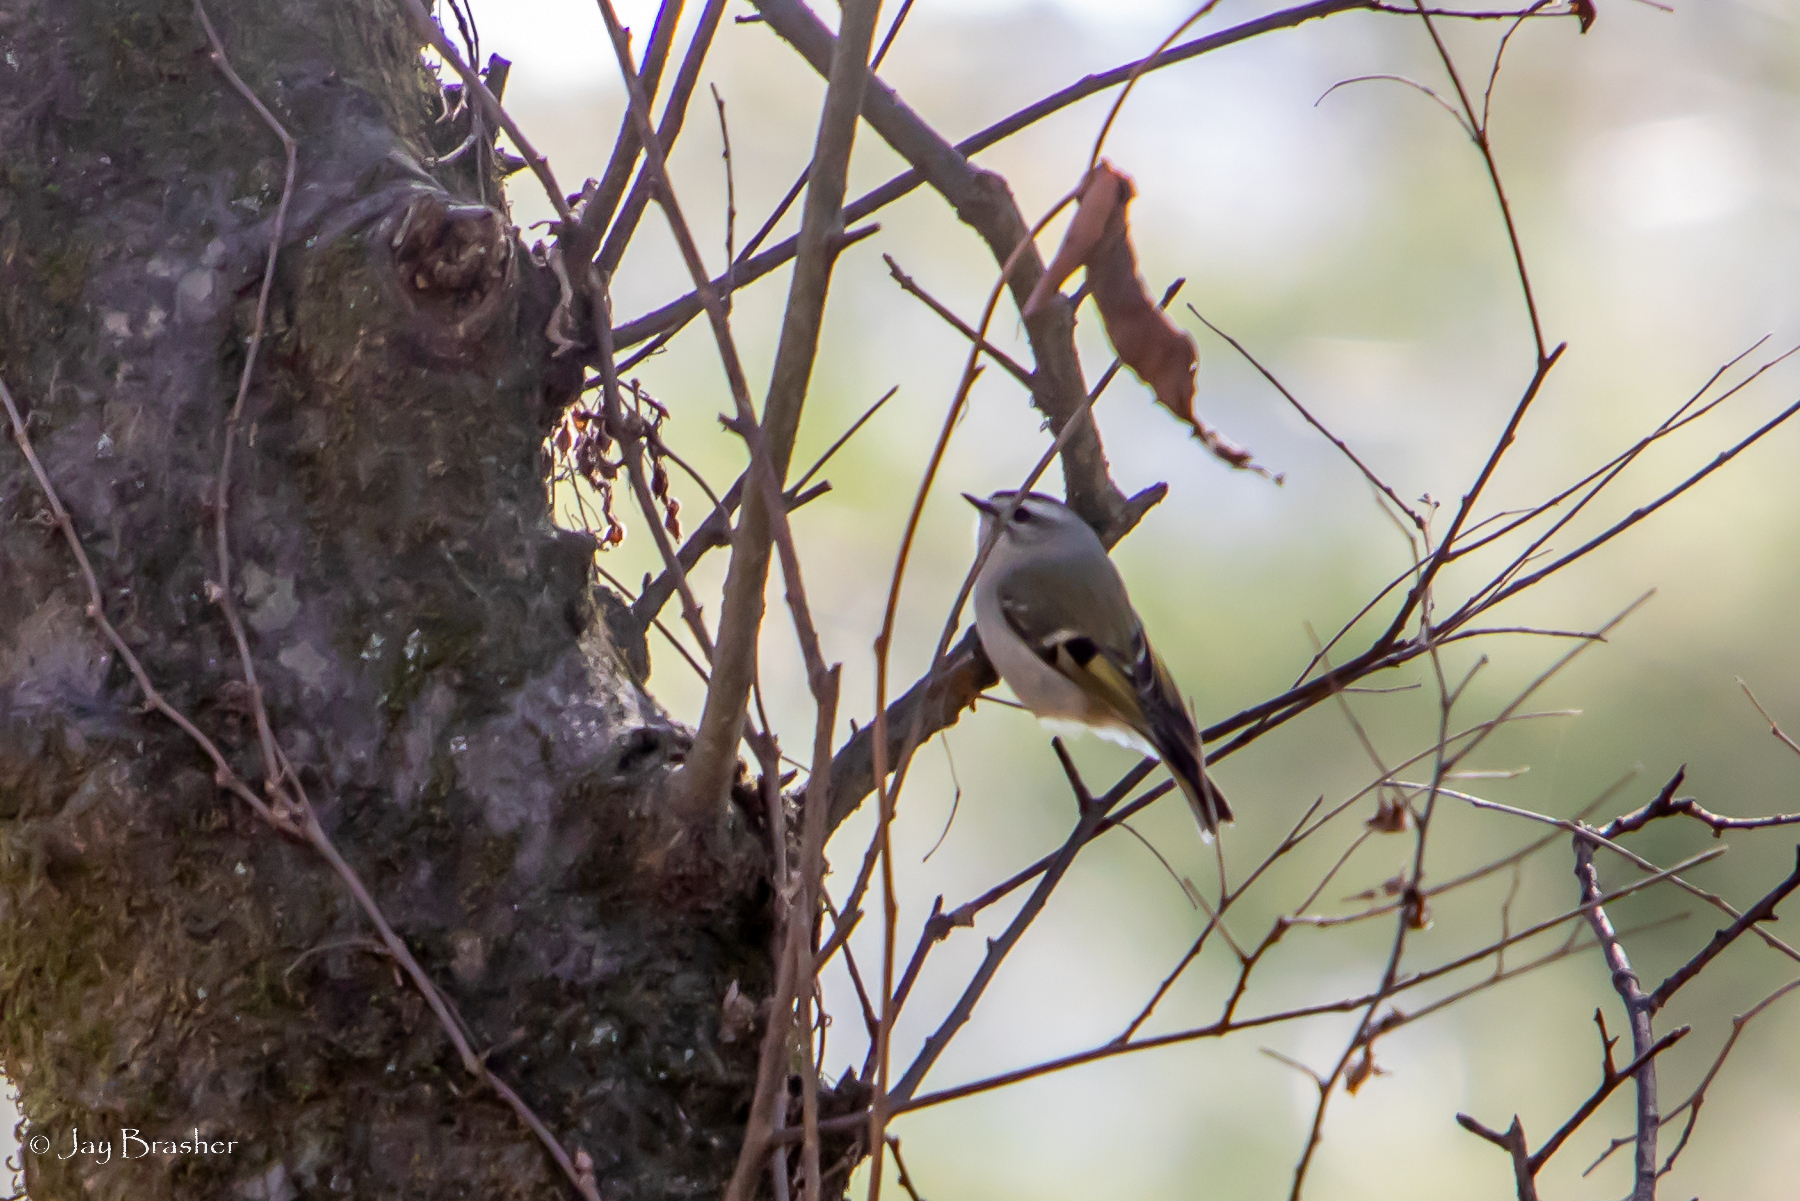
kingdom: Animalia
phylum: Chordata
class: Aves
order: Passeriformes
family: Regulidae
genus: Regulus
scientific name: Regulus satrapa
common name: Golden-crowned kinglet
